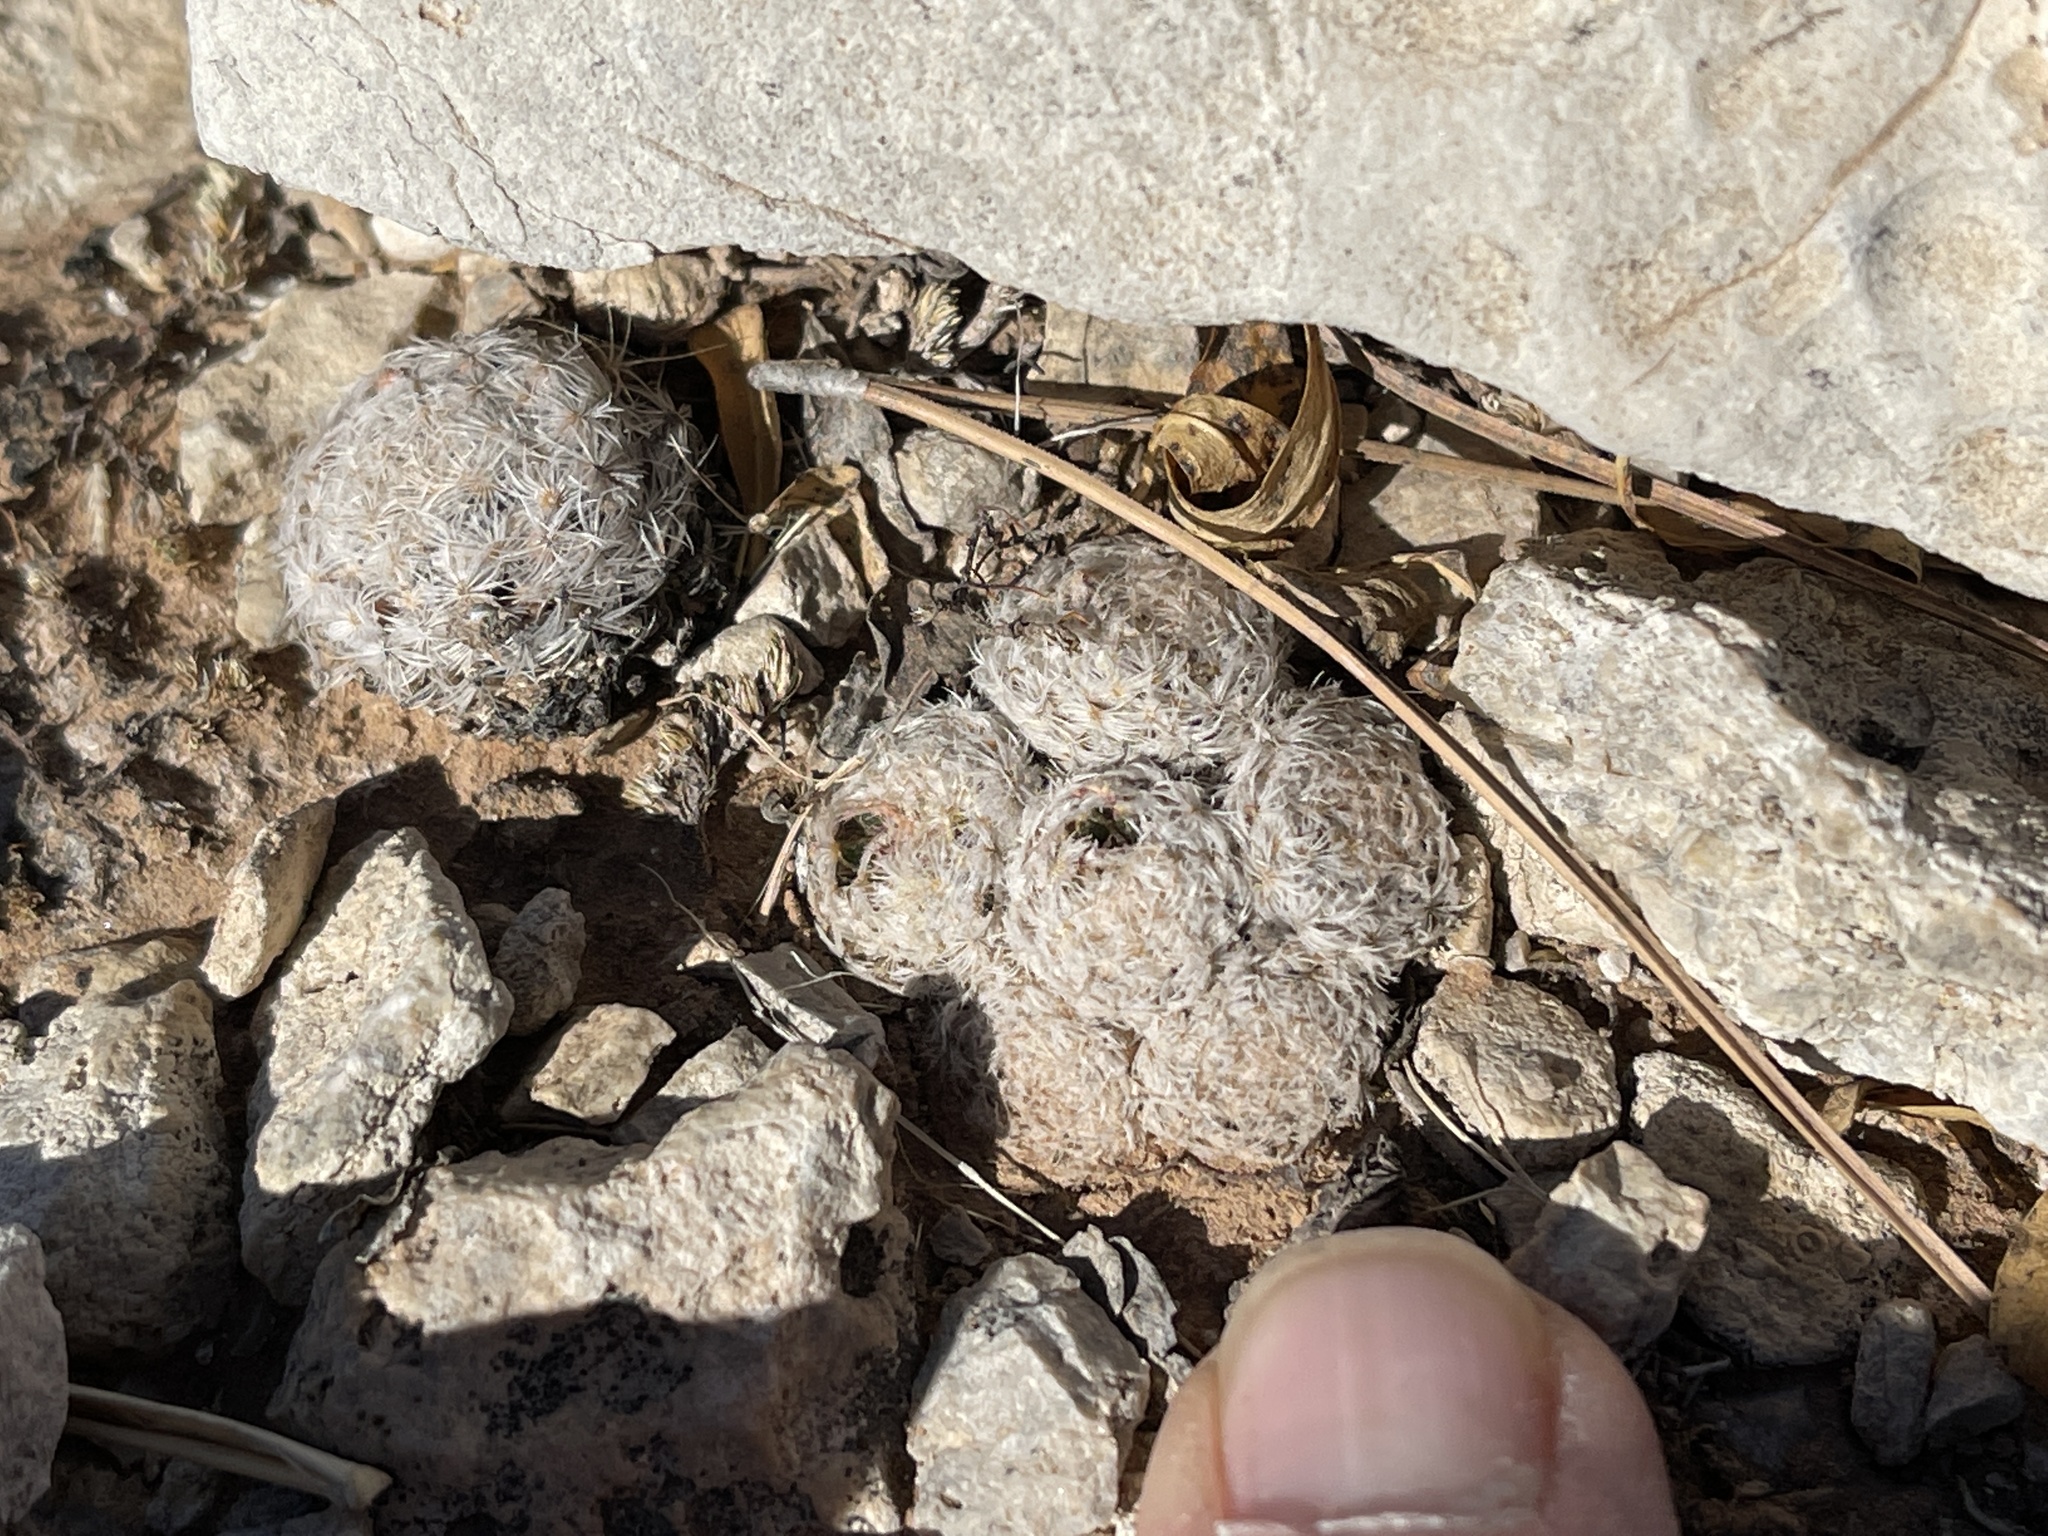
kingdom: Plantae
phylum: Tracheophyta
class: Magnoliopsida
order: Caryophyllales
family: Cactaceae
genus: Mammillaria
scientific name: Mammillaria lasiacantha
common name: Lace-spine nipple cactus
